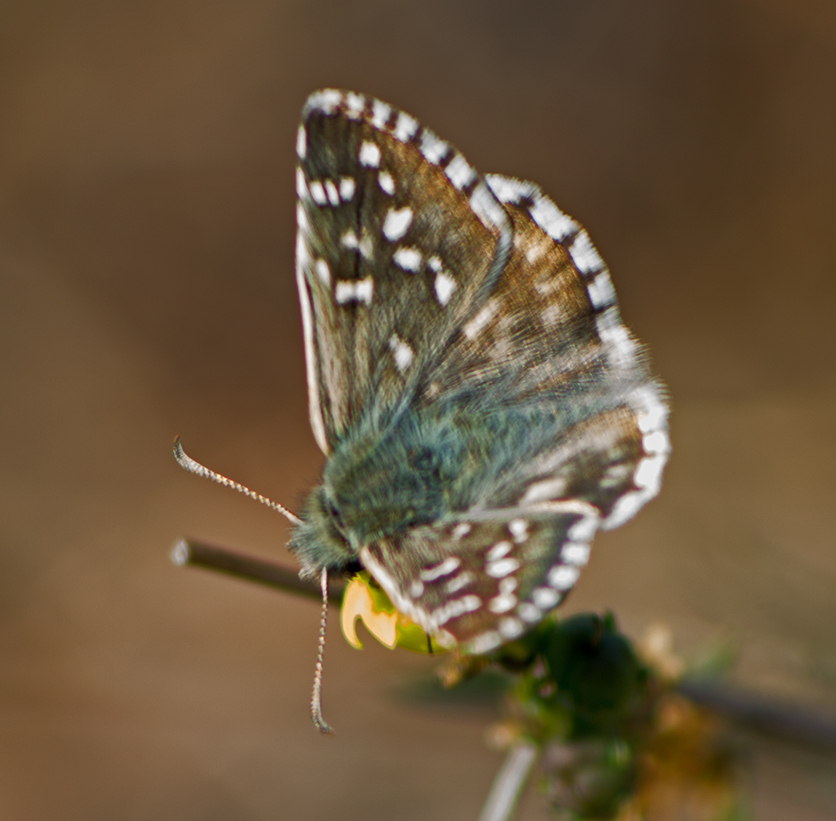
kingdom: Animalia
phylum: Arthropoda
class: Insecta
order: Lepidoptera
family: Hesperiidae
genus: Pyrgus
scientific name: Pyrgus armoricanus
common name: Oberthür's grizzled skipper
